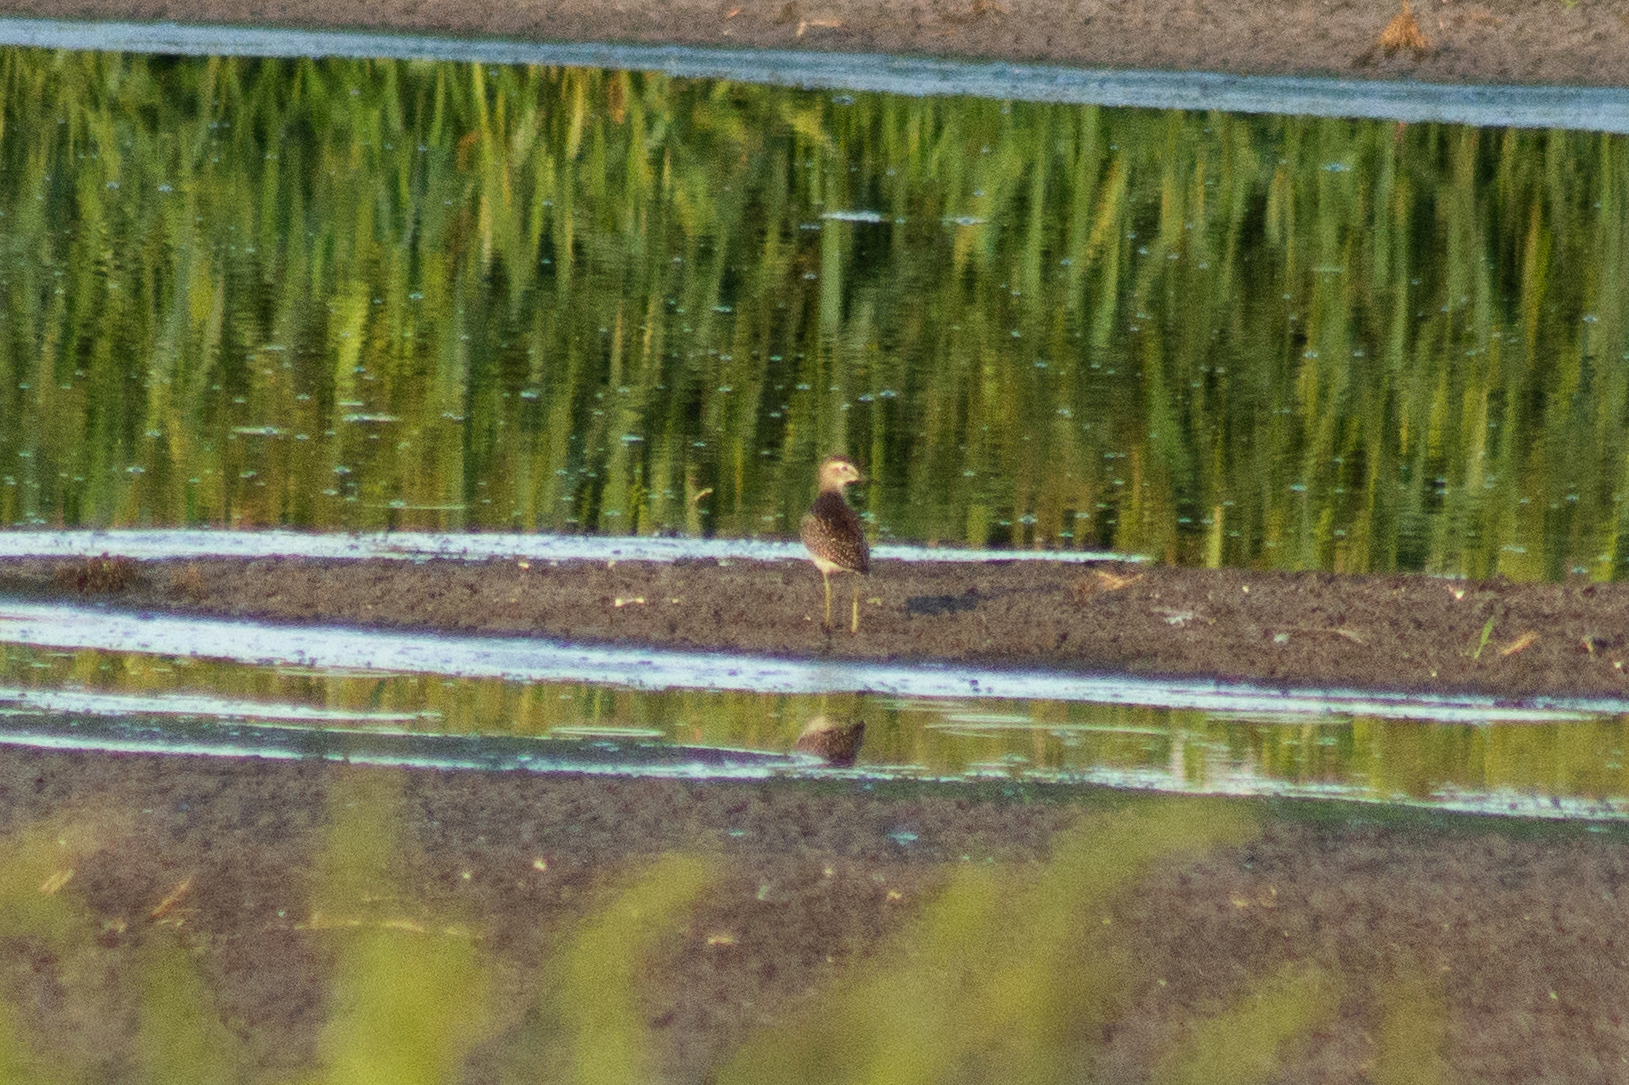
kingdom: Animalia
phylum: Chordata
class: Aves
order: Charadriiformes
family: Scolopacidae
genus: Tringa
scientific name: Tringa glareola
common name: Wood sandpiper
